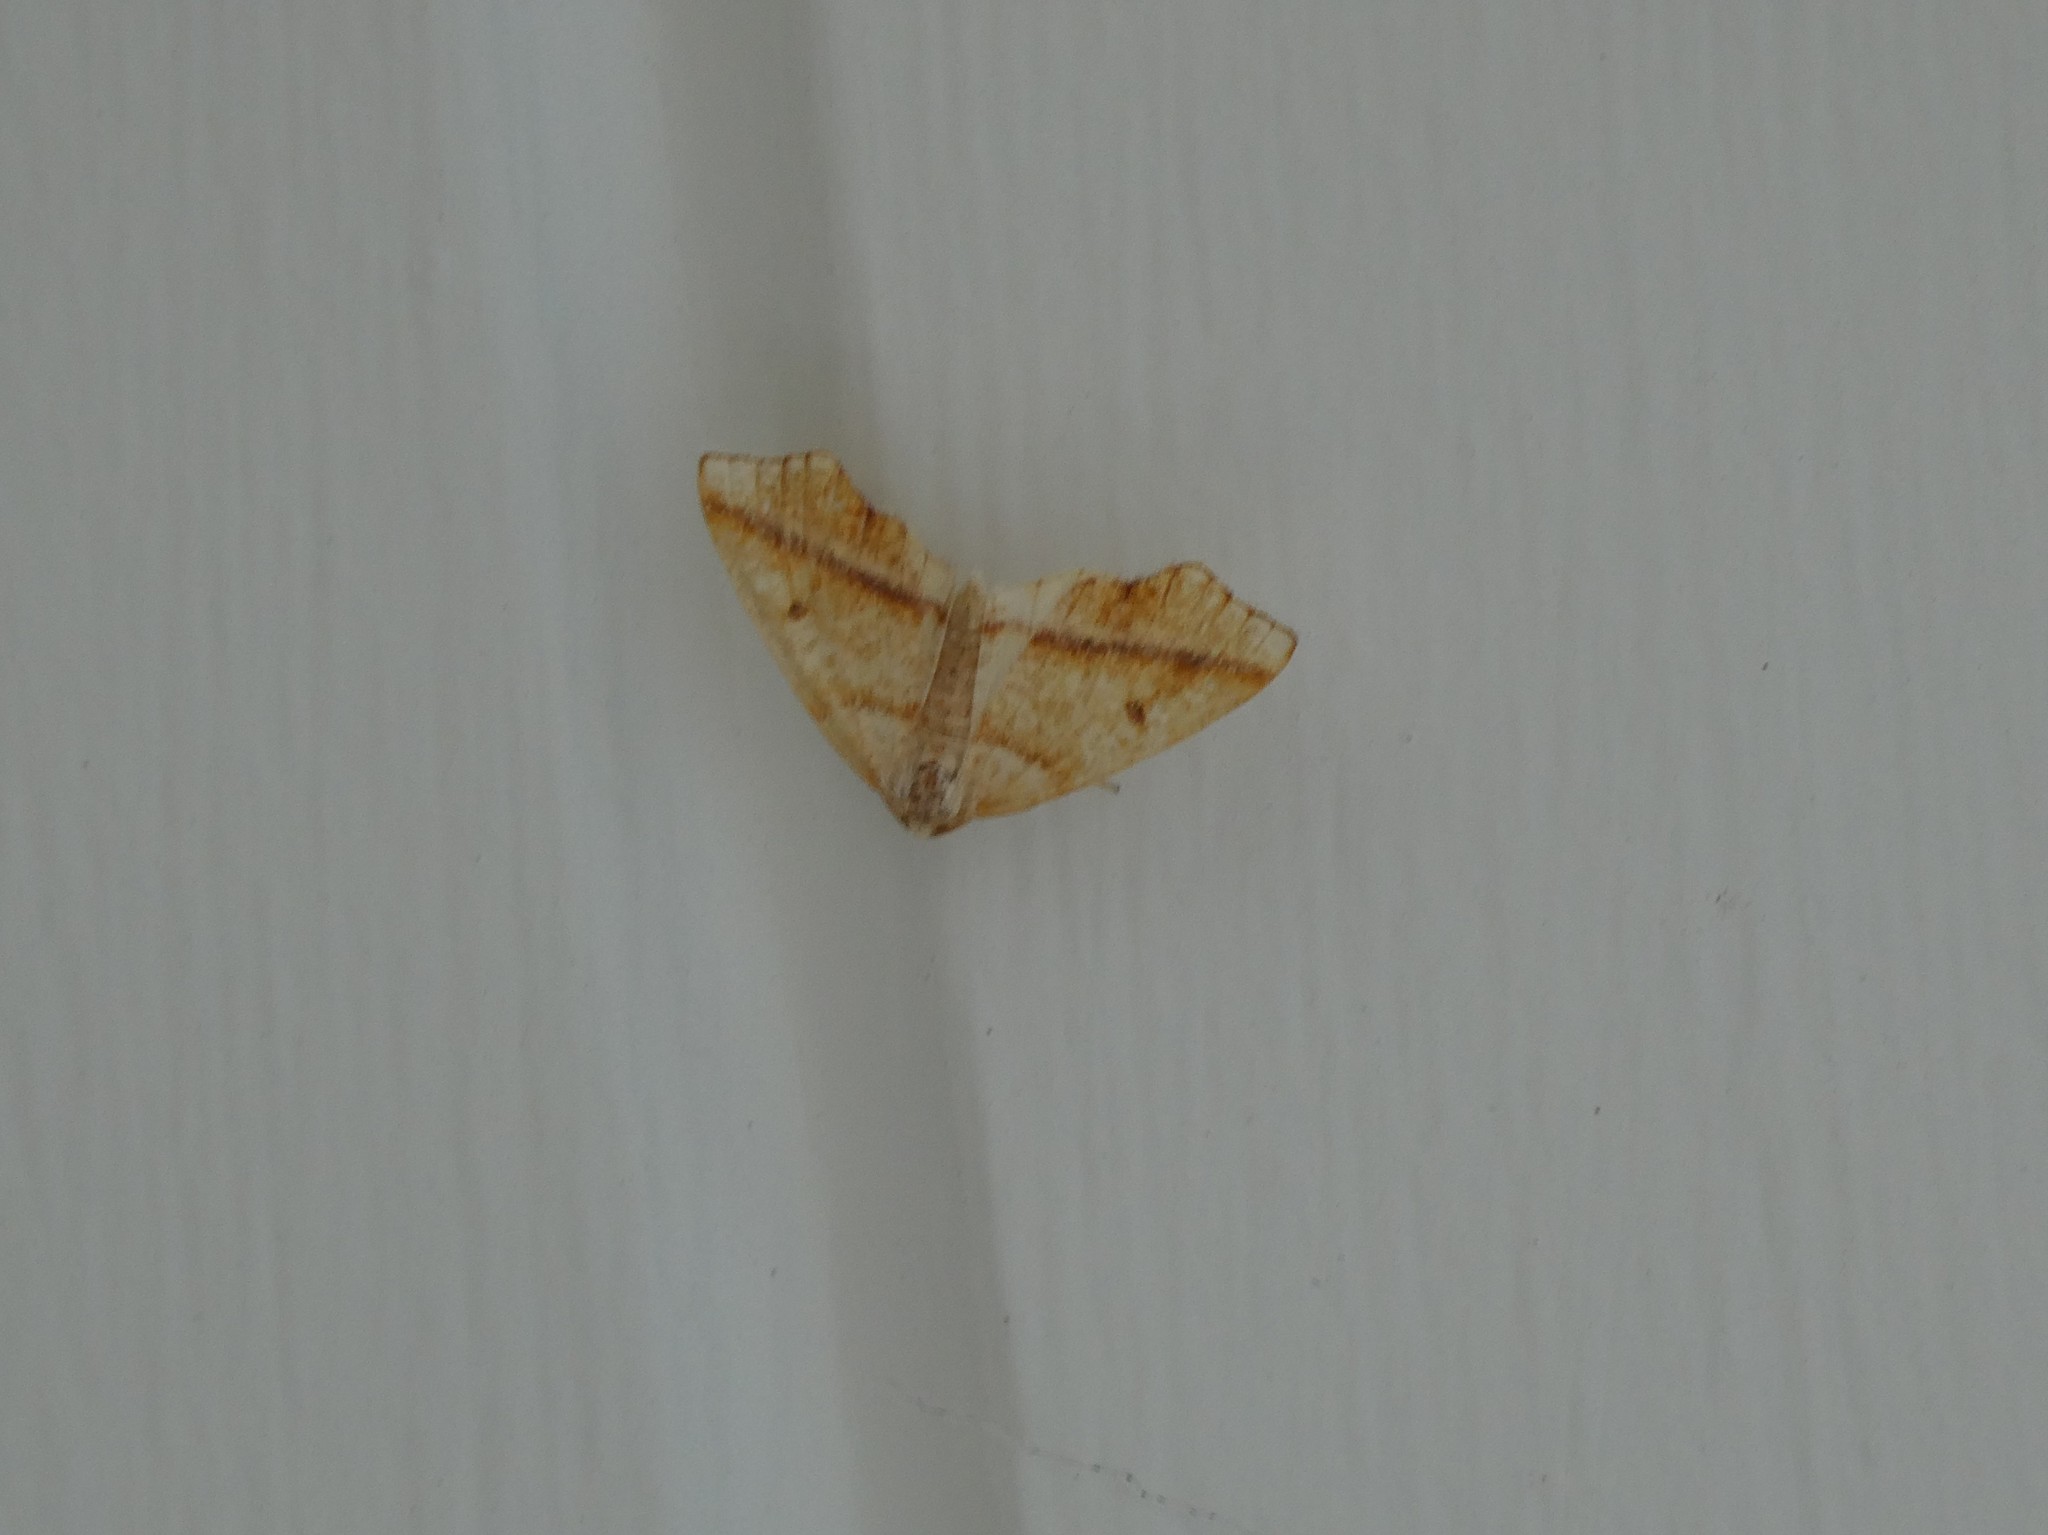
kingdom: Animalia
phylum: Arthropoda
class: Insecta
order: Lepidoptera
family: Geometridae
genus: Plagodis
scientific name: Plagodis alcoolaria
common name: Hollow-spotted plagodis
